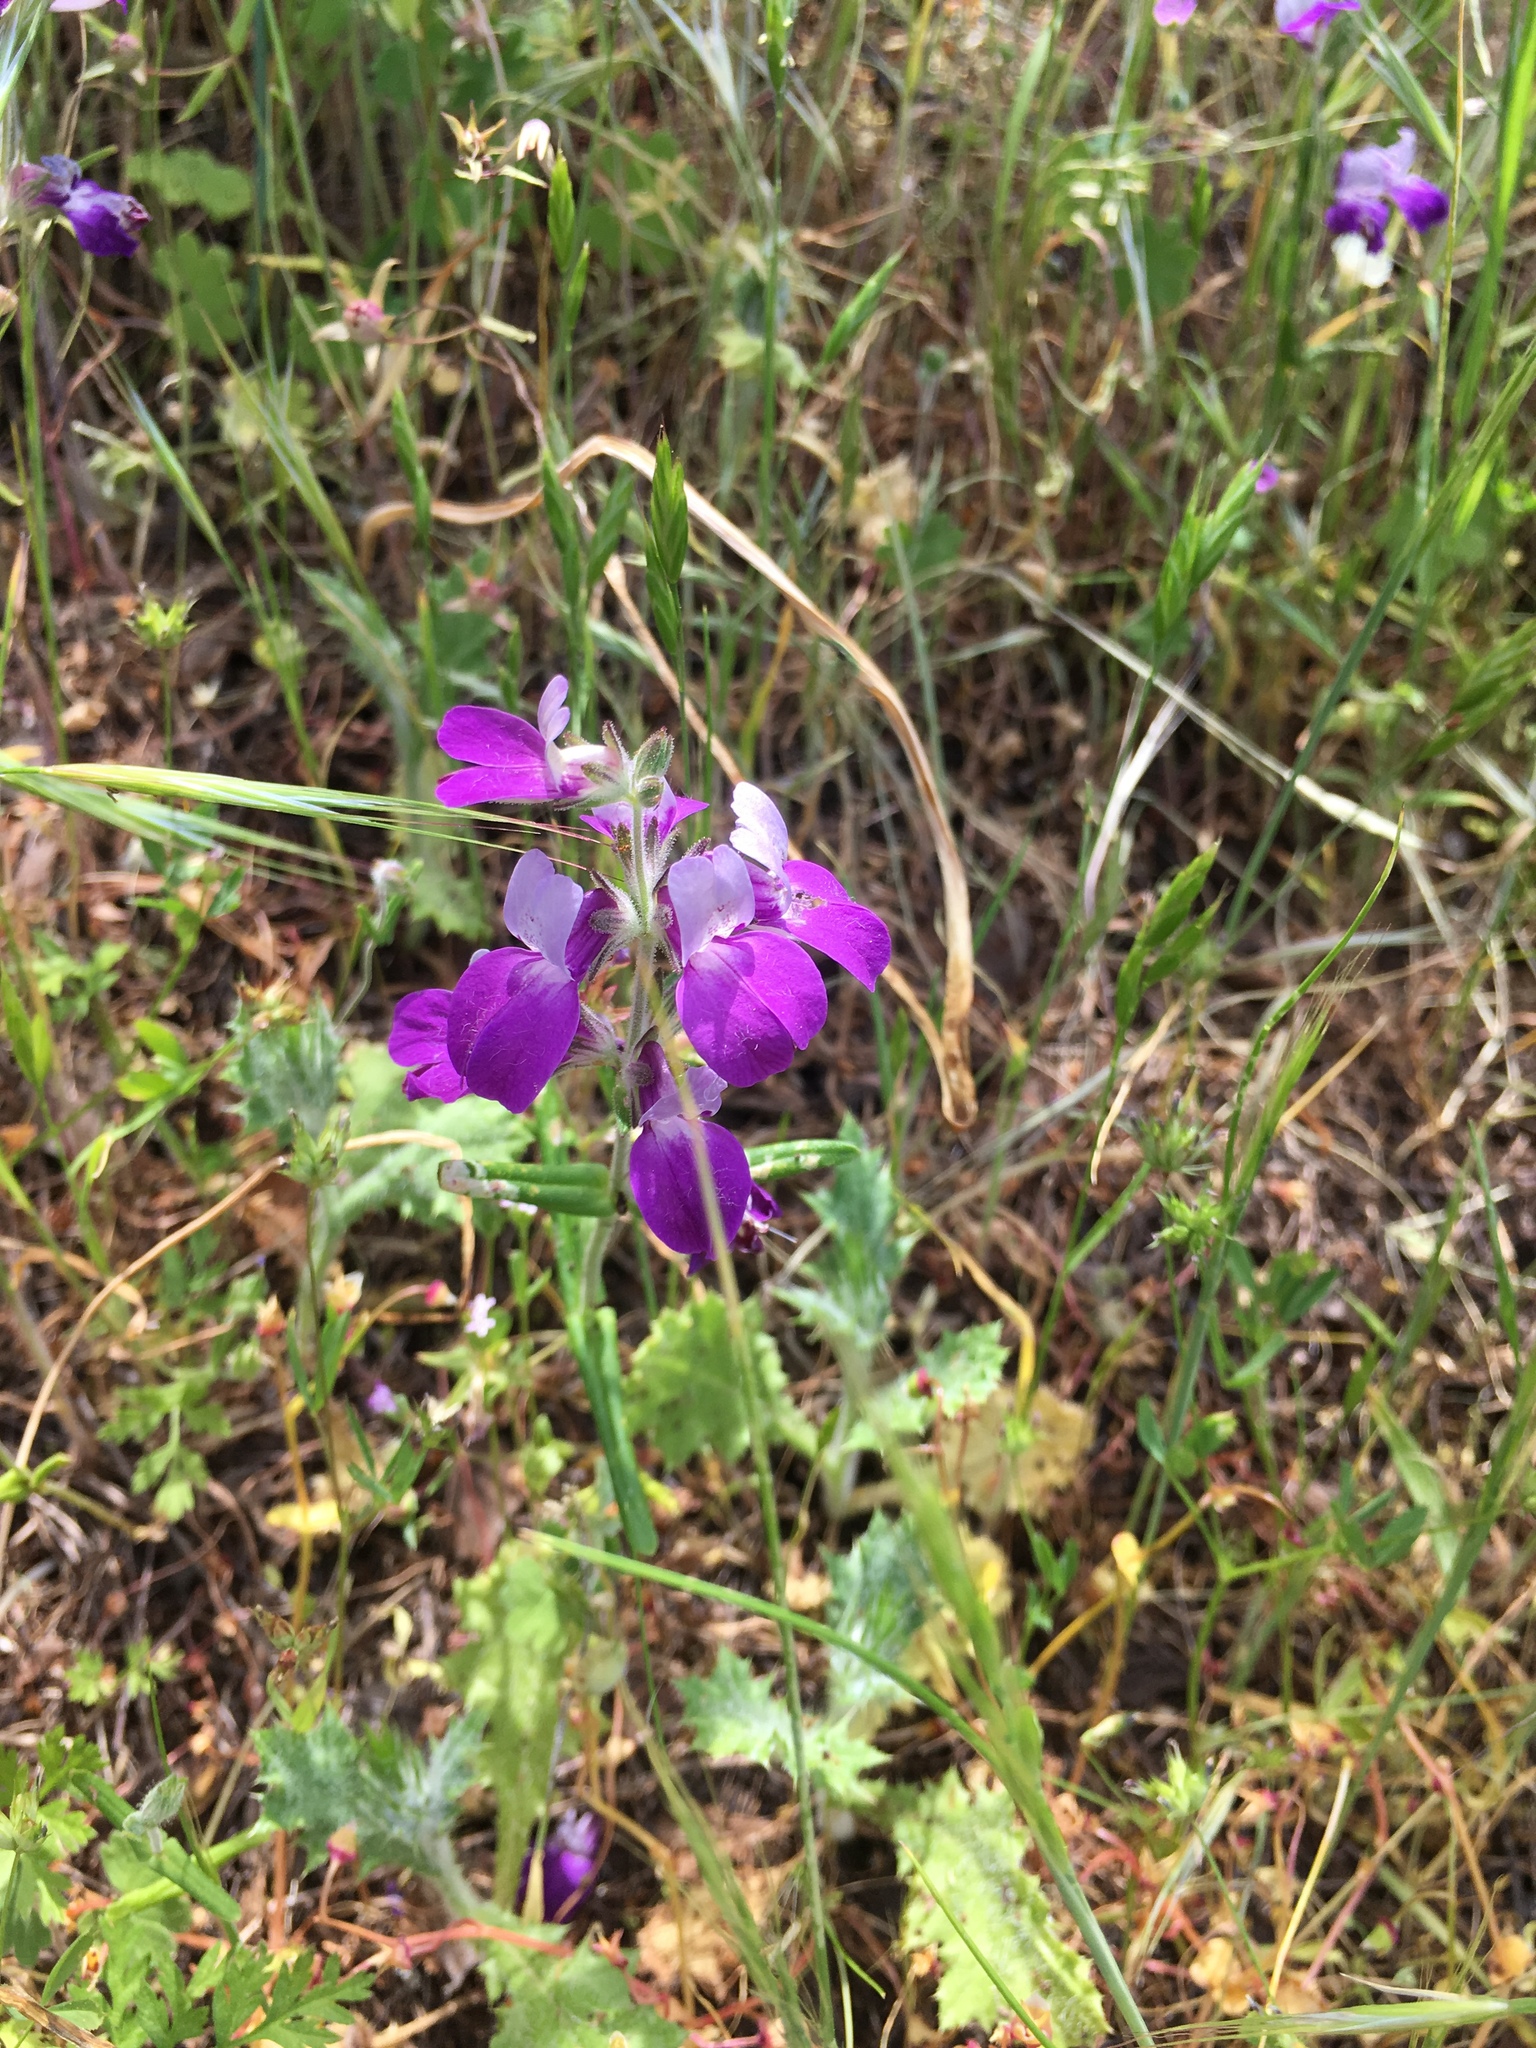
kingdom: Plantae
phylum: Tracheophyta
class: Magnoliopsida
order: Lamiales
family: Plantaginaceae
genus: Collinsia
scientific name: Collinsia heterophylla
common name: Chinese-houses
